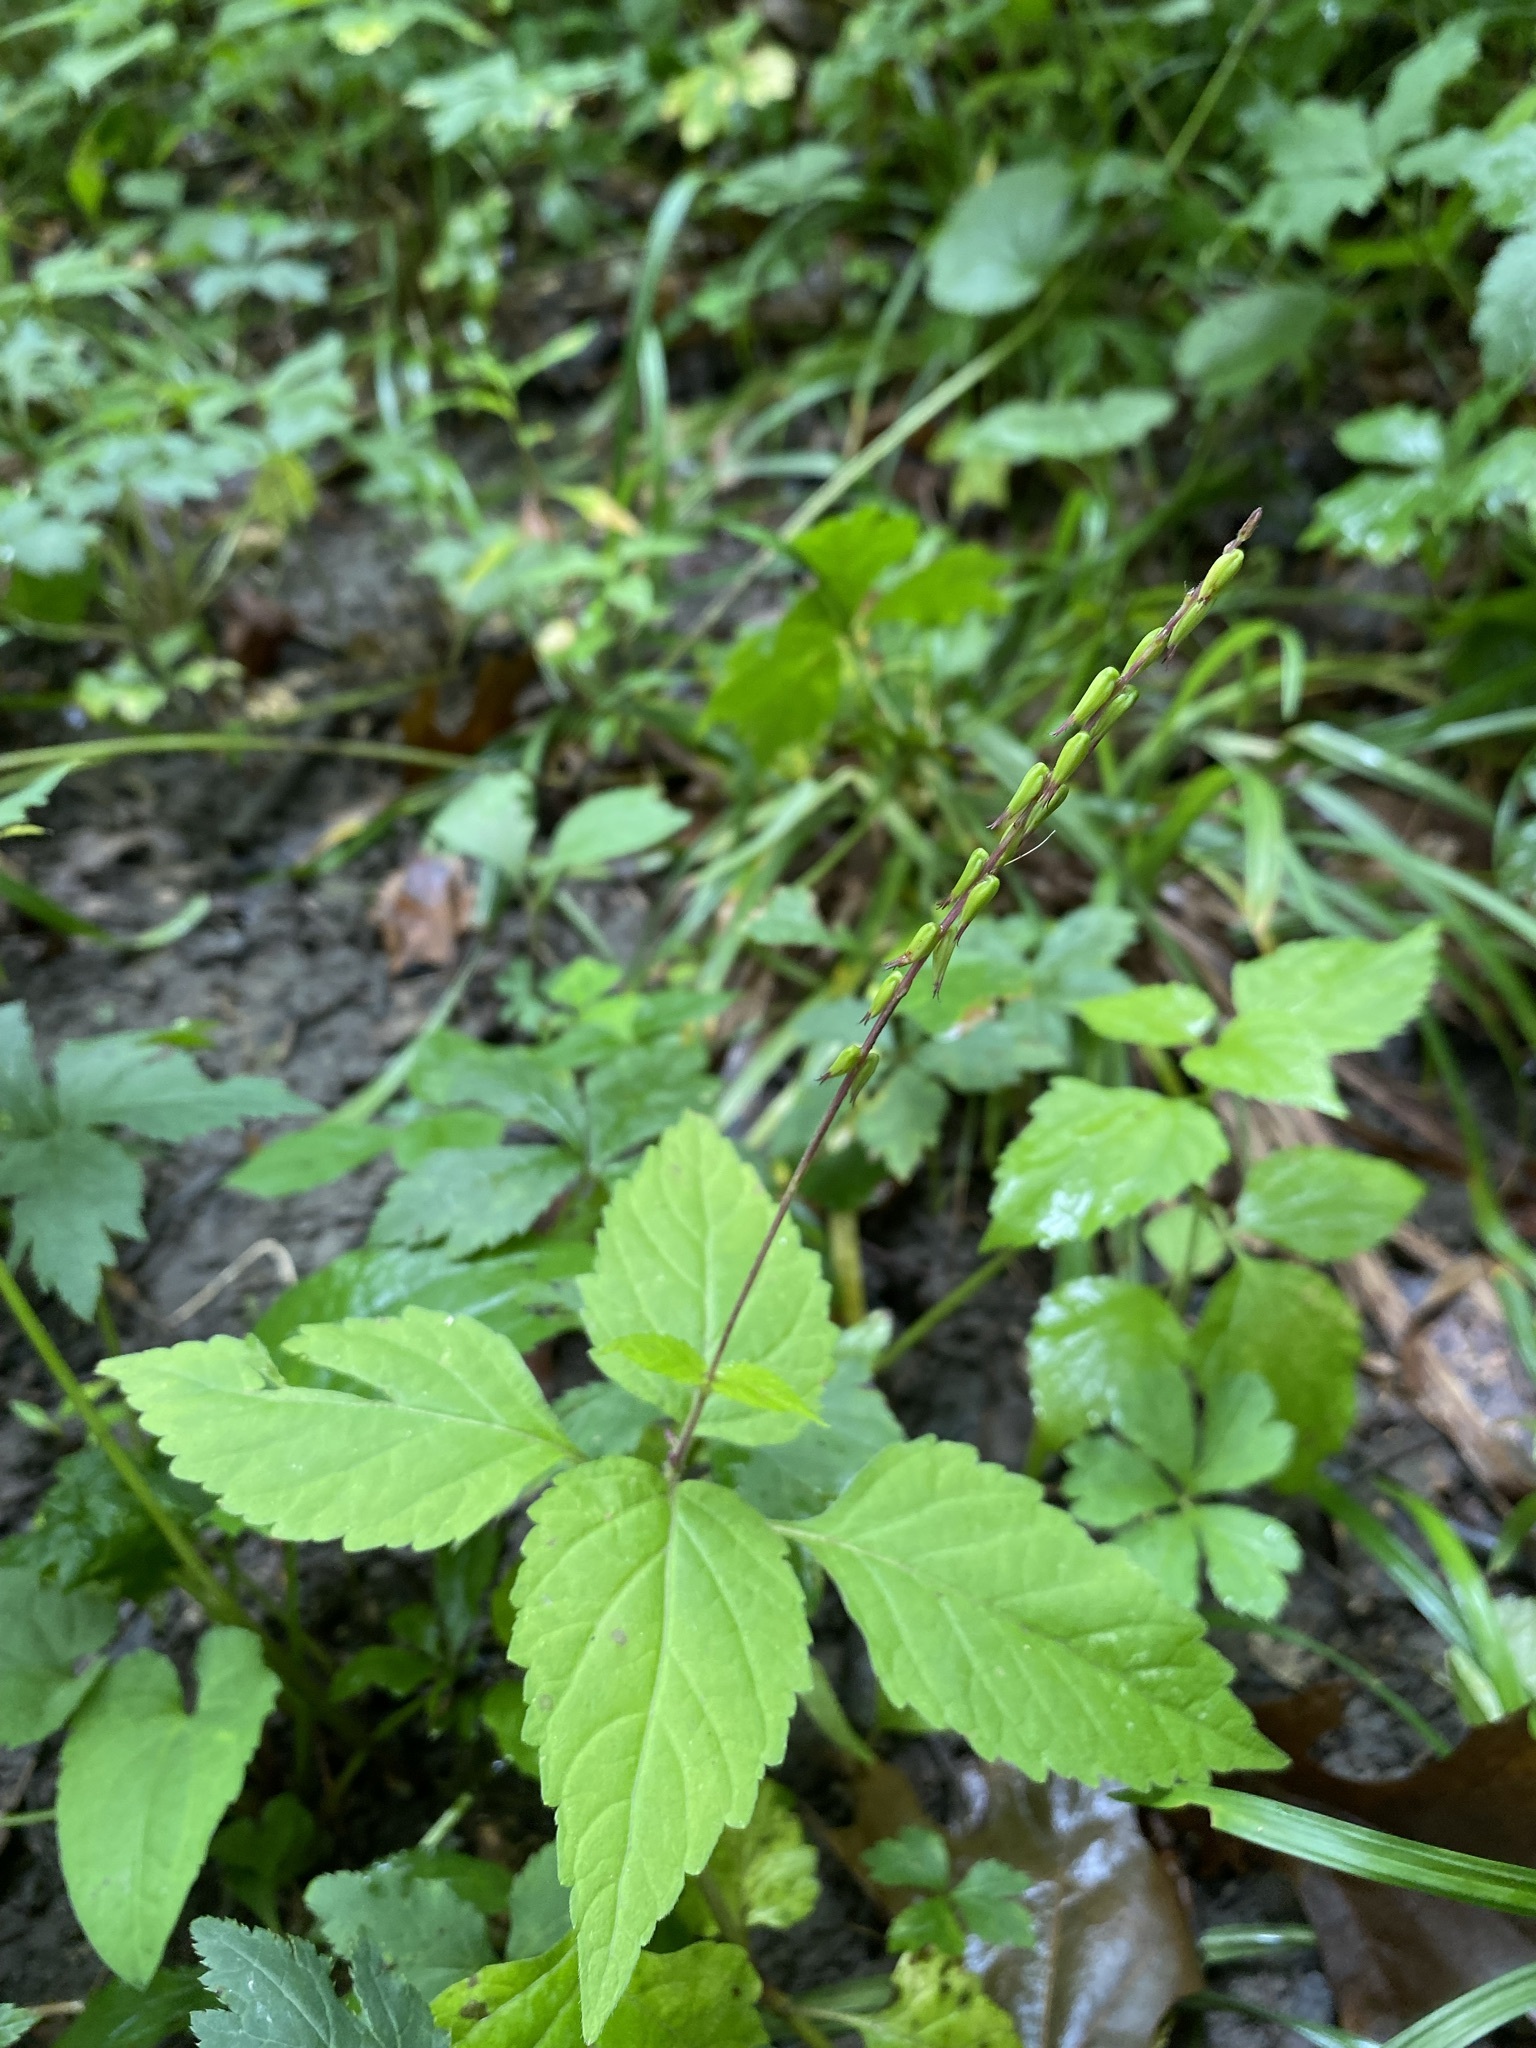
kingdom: Plantae
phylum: Tracheophyta
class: Magnoliopsida
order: Lamiales
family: Phrymaceae
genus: Phryma
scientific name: Phryma leptostachya
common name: American lopseed
